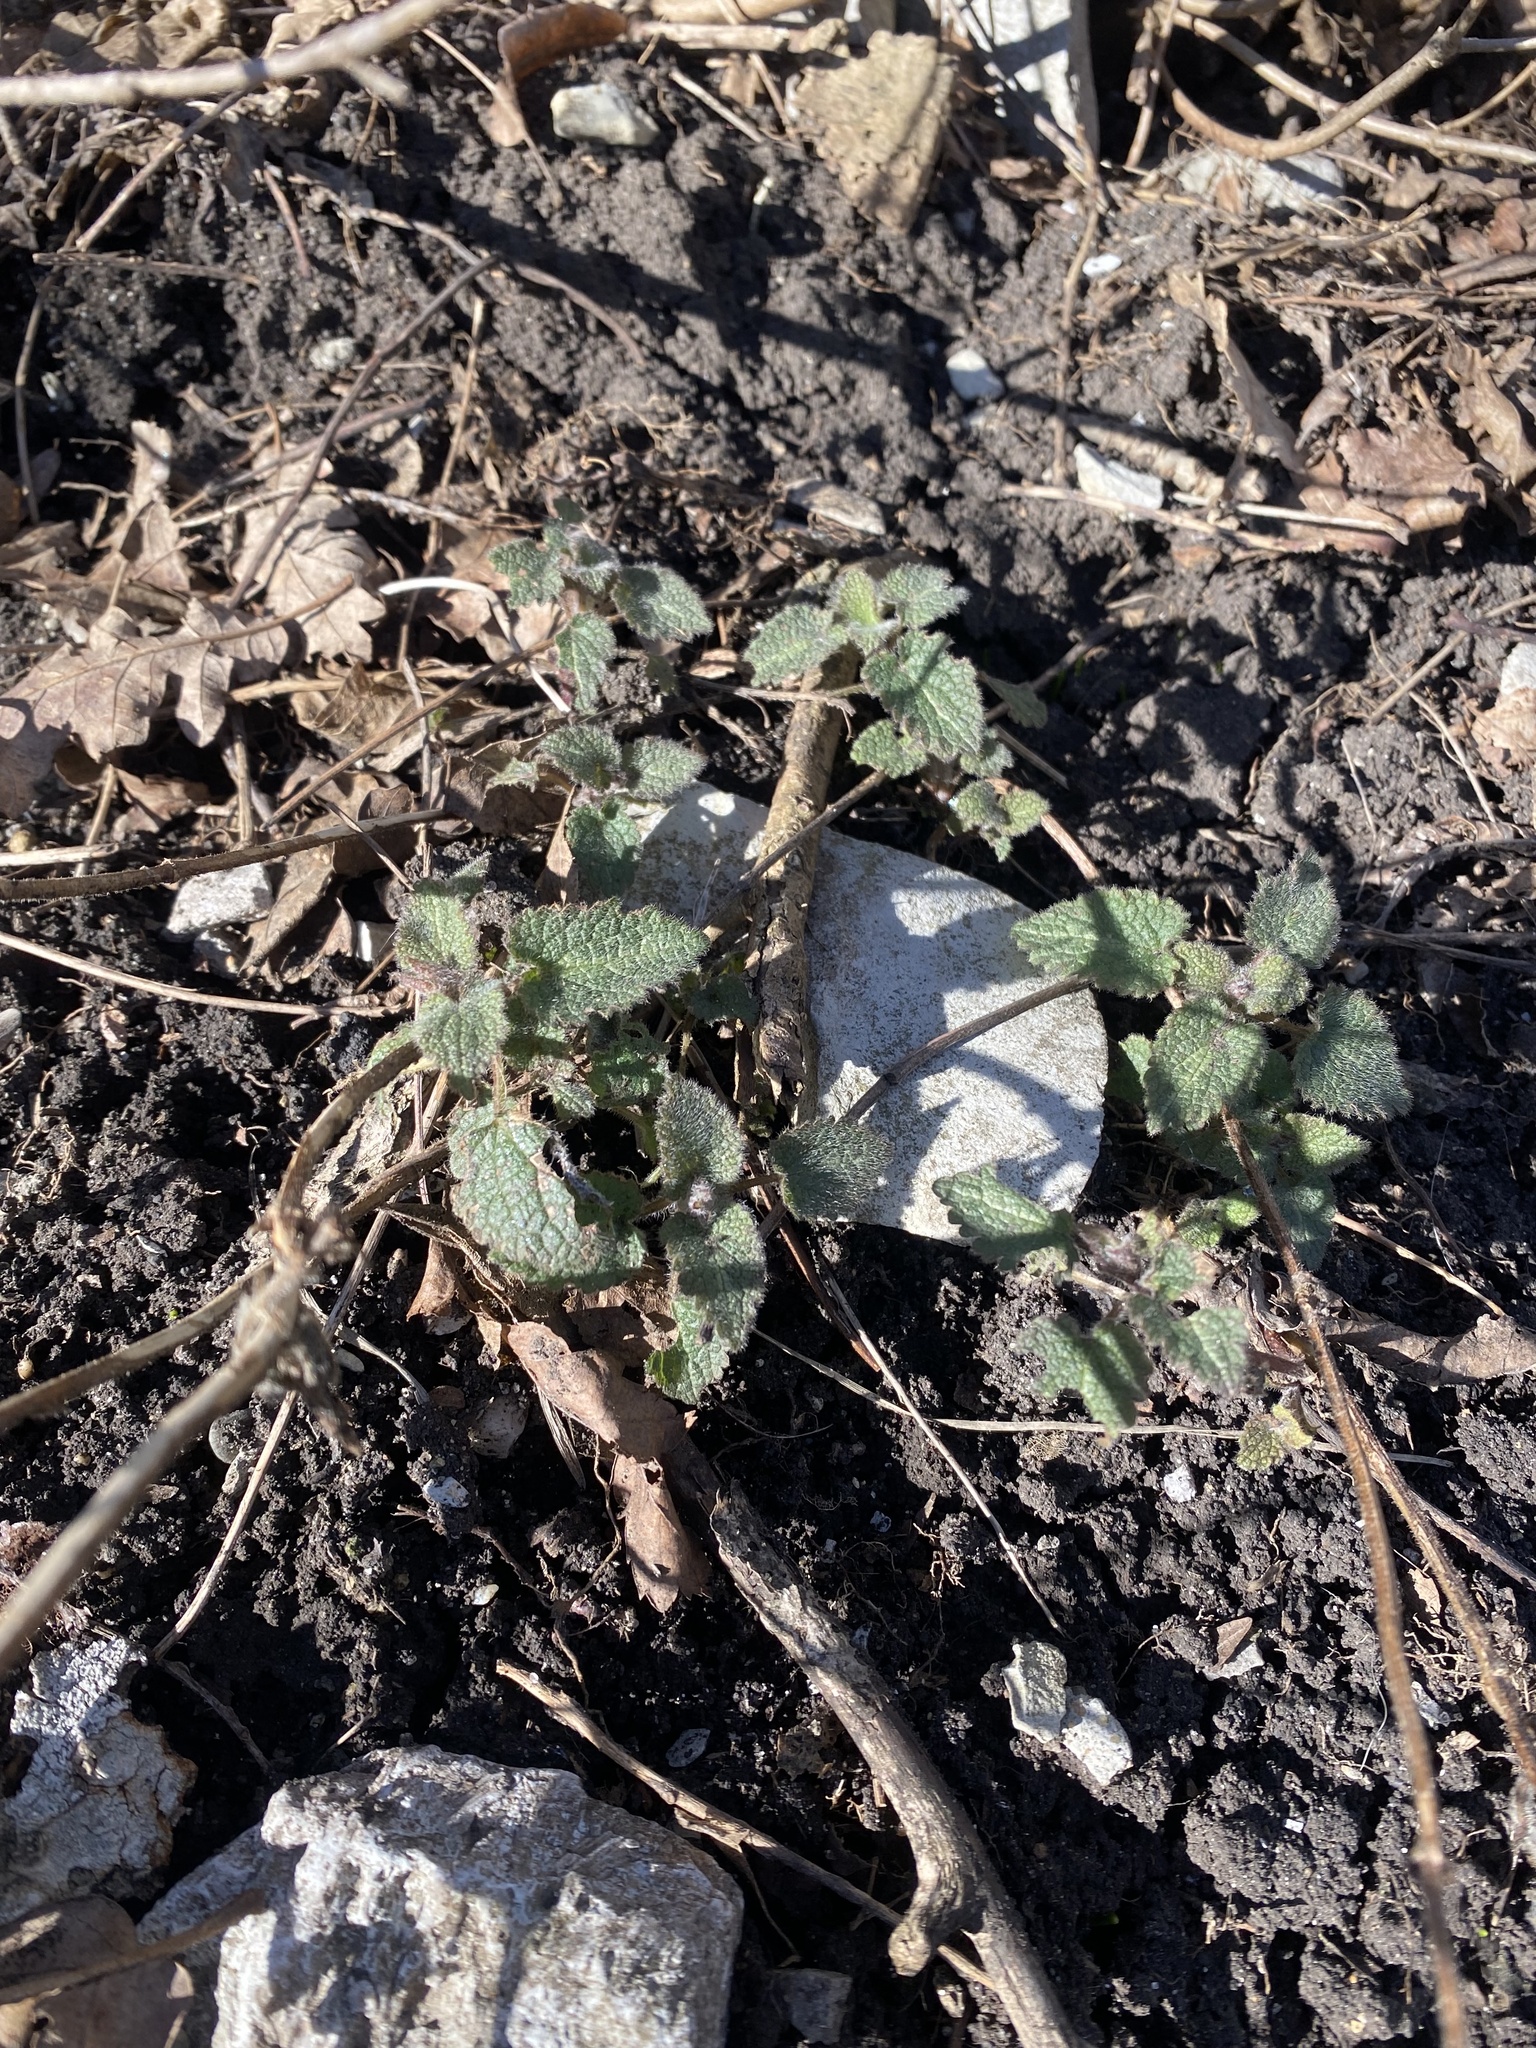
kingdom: Plantae
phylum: Tracheophyta
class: Magnoliopsida
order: Lamiales
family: Lamiaceae
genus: Lamium
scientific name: Lamium maculatum
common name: Spotted dead-nettle
